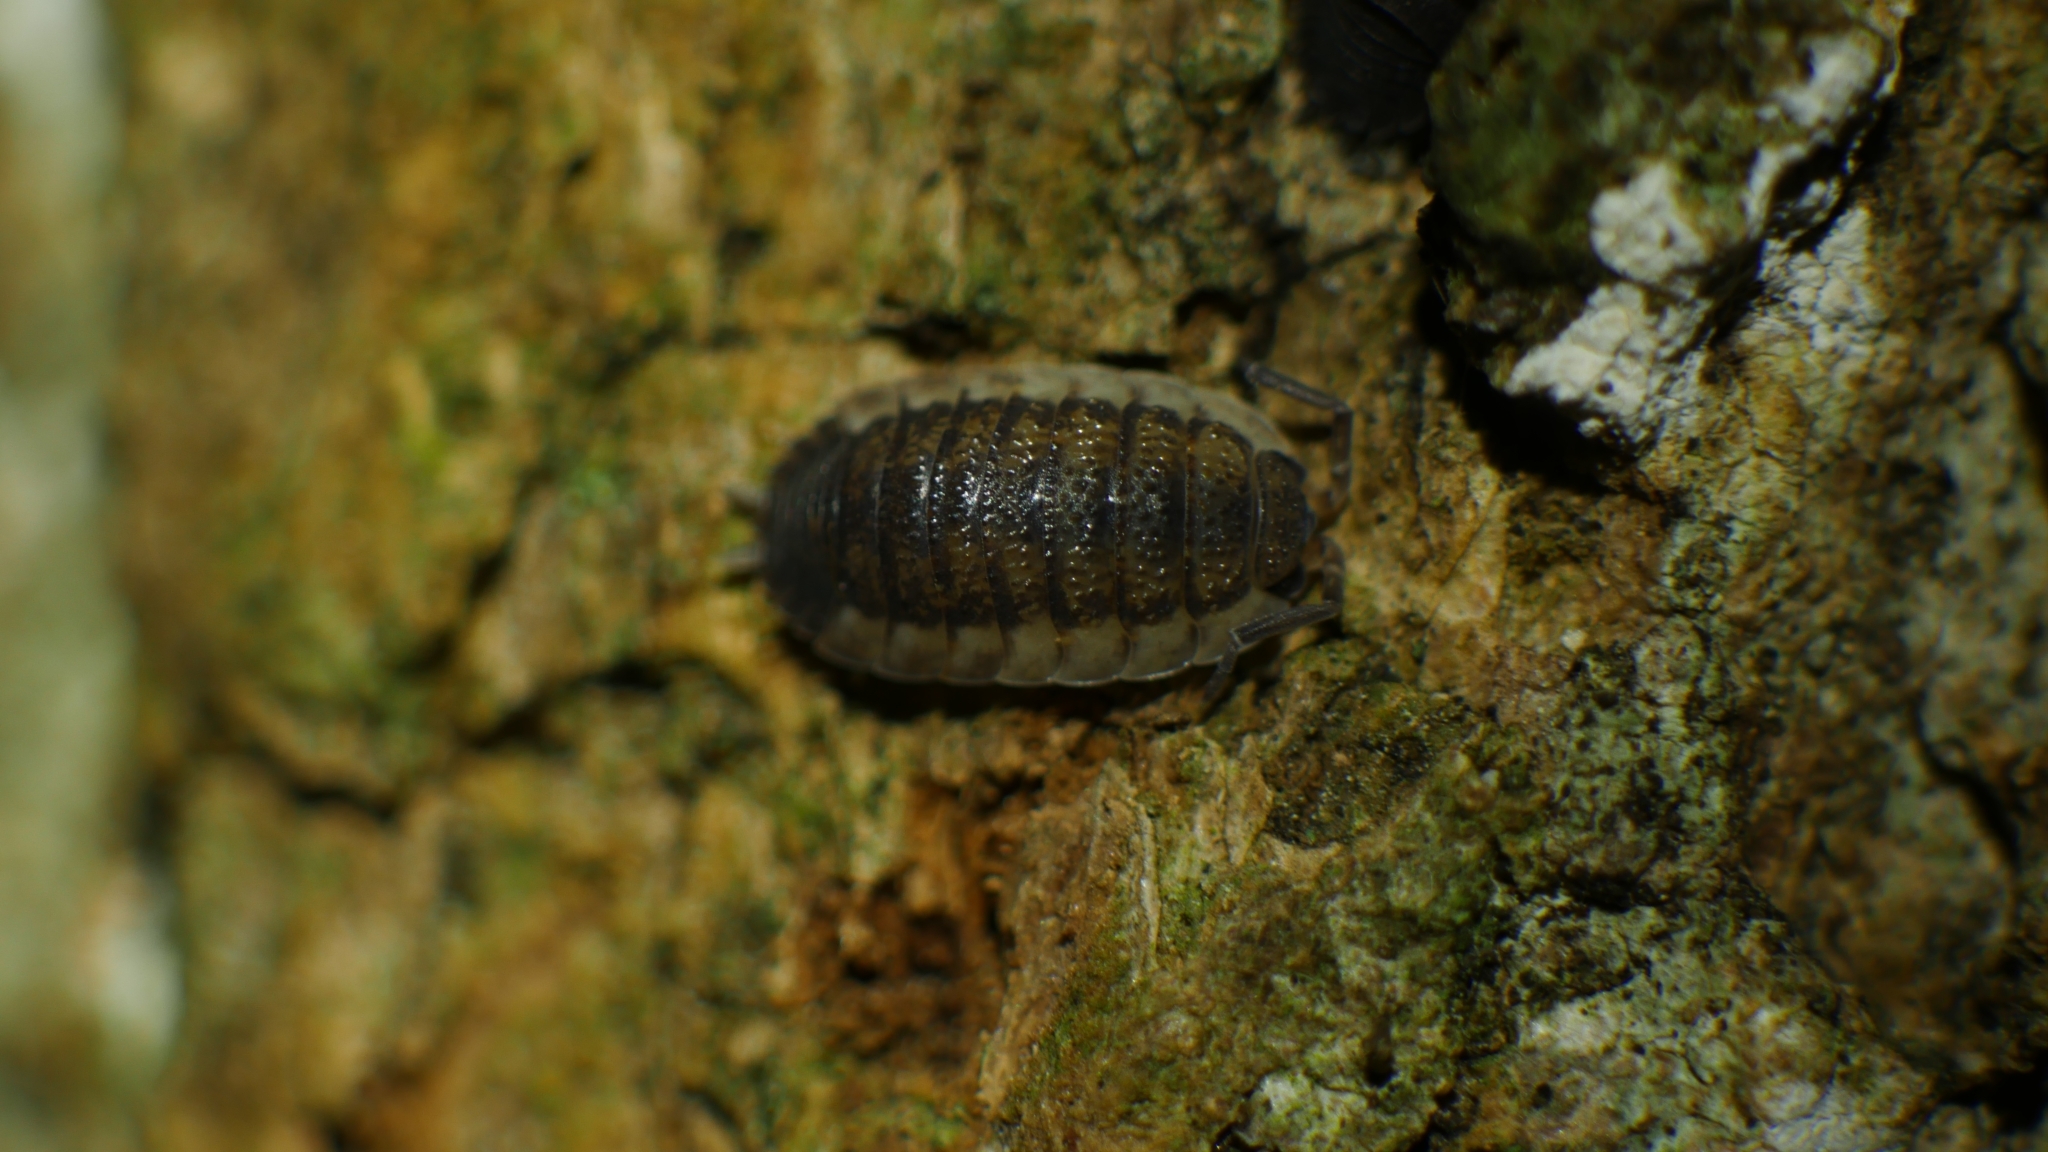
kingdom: Animalia
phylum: Arthropoda
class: Malacostraca
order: Isopoda
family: Porcellionidae
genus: Porcellio
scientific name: Porcellio scaber
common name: Common rough woodlouse
